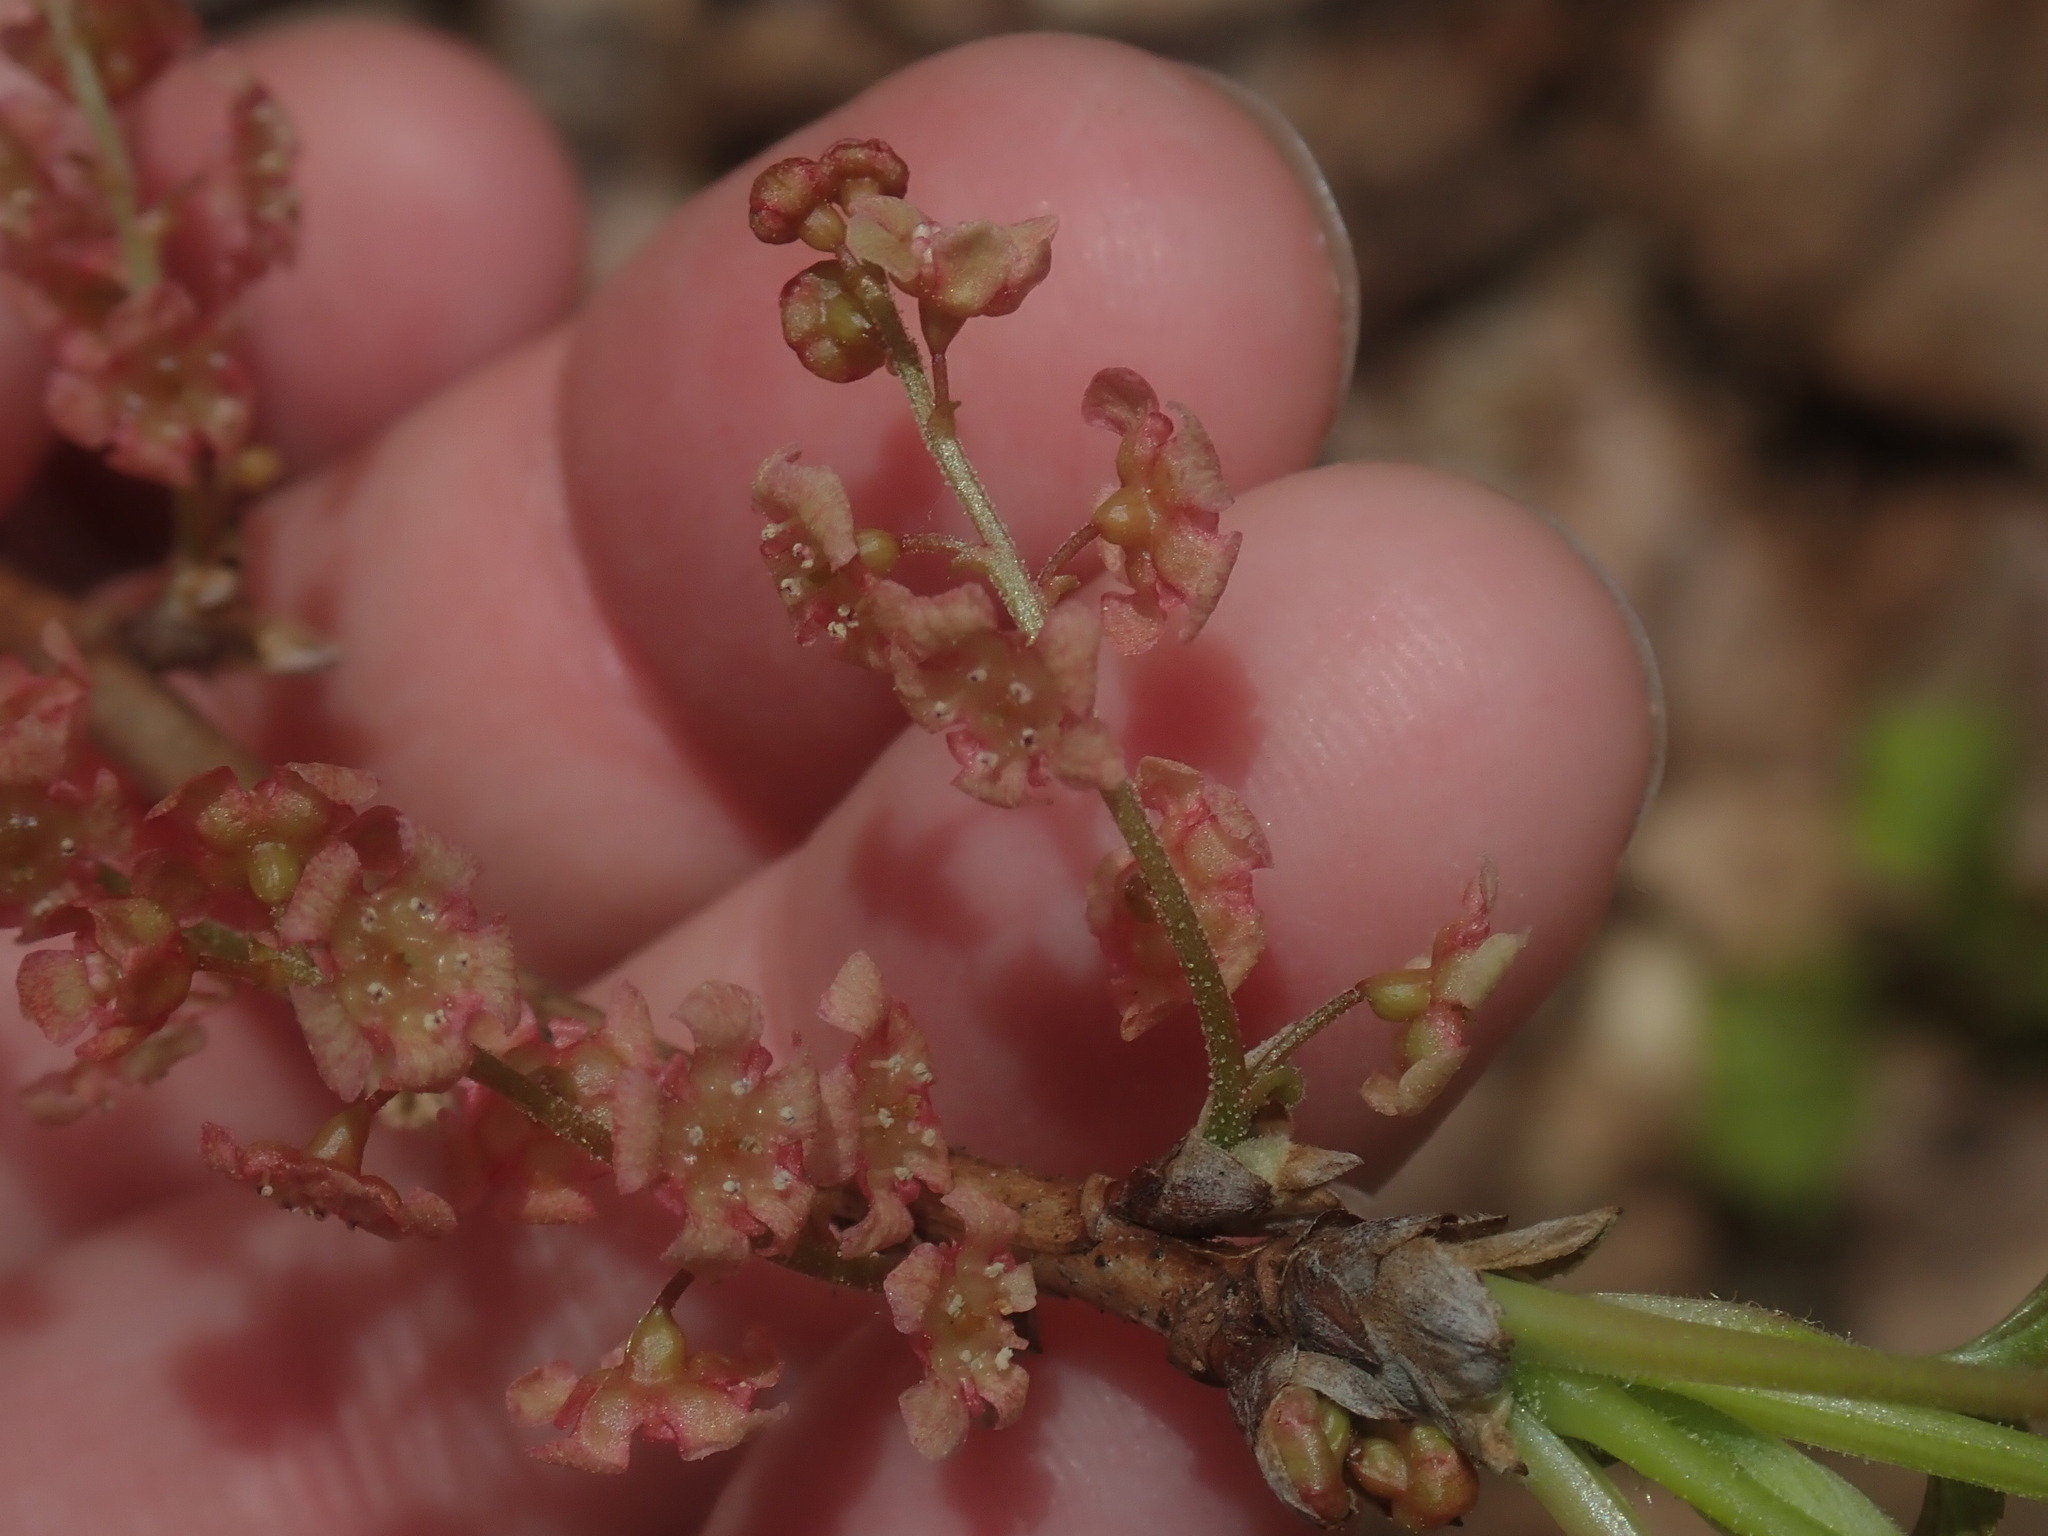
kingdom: Plantae
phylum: Tracheophyta
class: Magnoliopsida
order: Saxifragales
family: Grossulariaceae
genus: Ribes
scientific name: Ribes triste
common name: Swamp red currant
